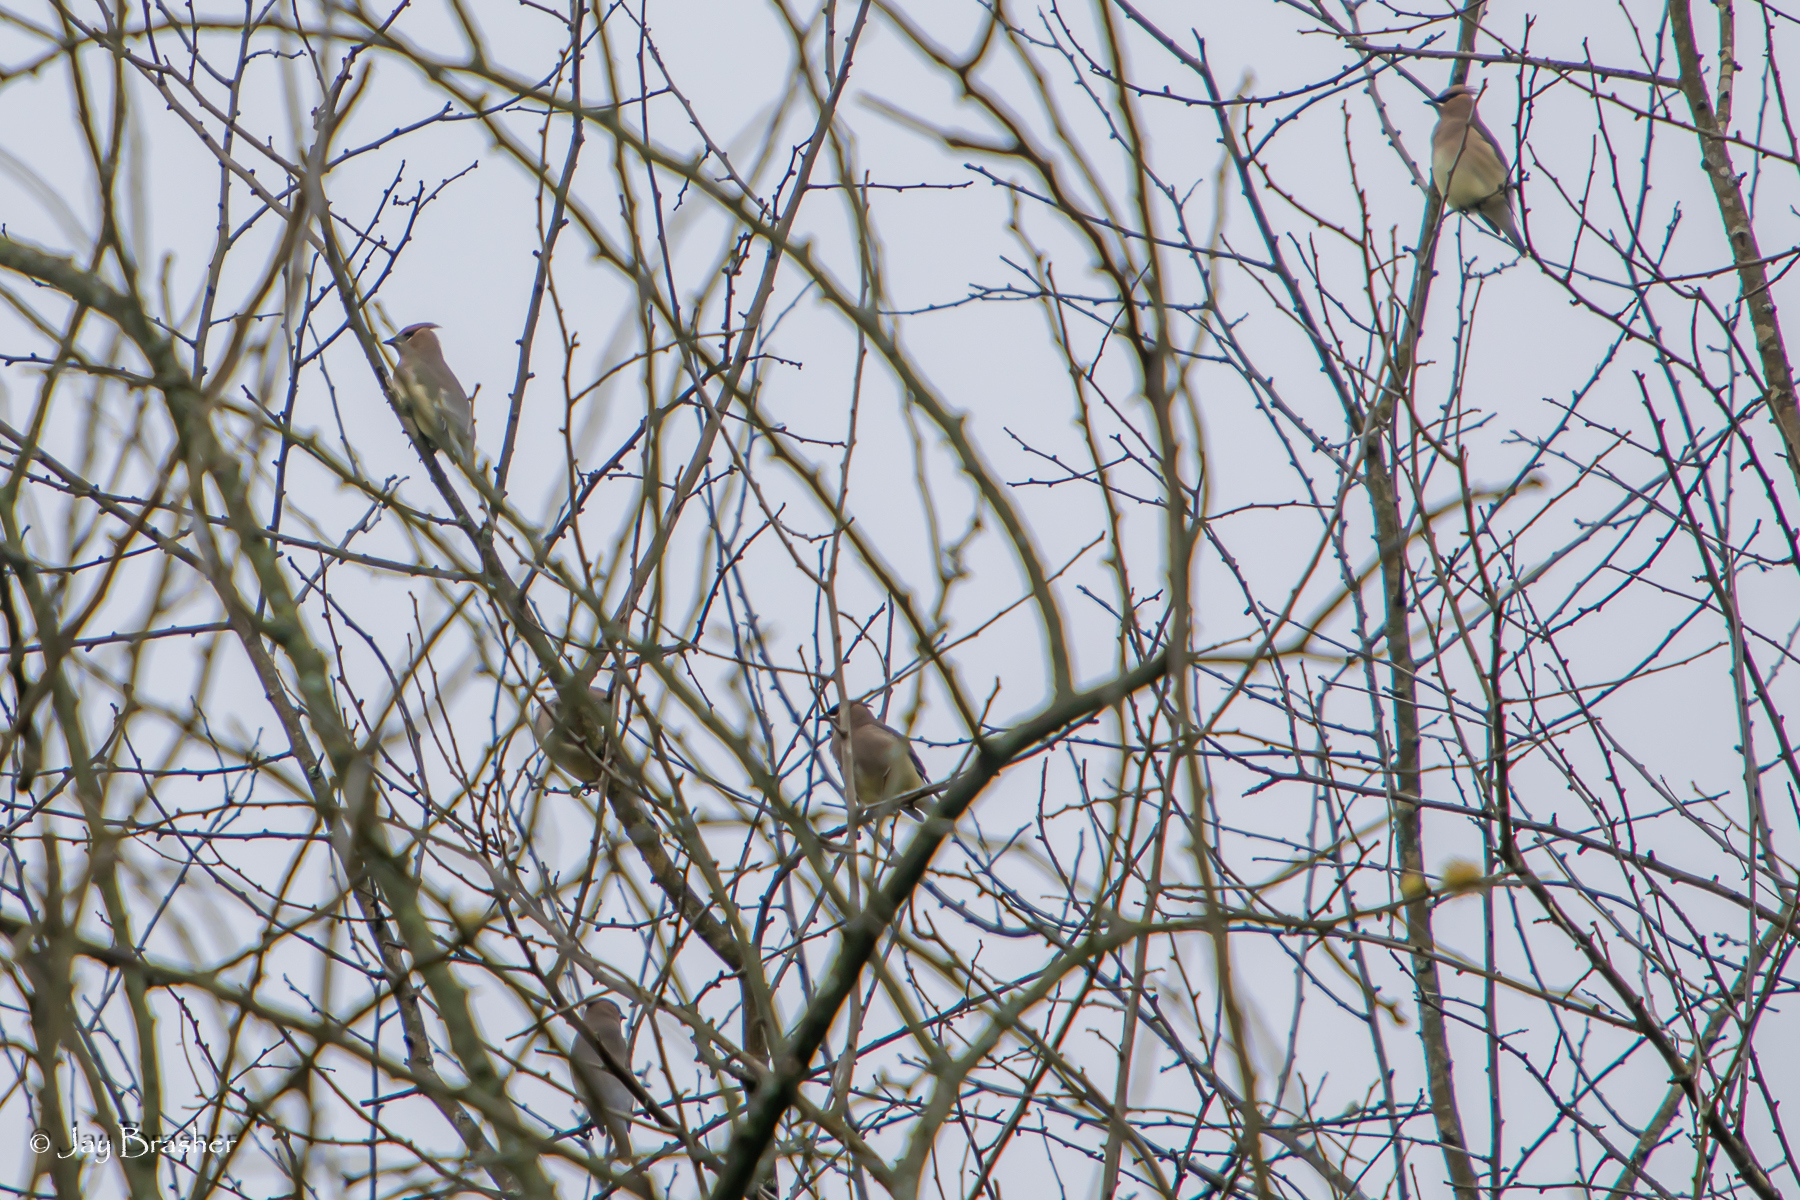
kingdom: Animalia
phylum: Chordata
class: Aves
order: Passeriformes
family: Bombycillidae
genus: Bombycilla
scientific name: Bombycilla cedrorum
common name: Cedar waxwing
